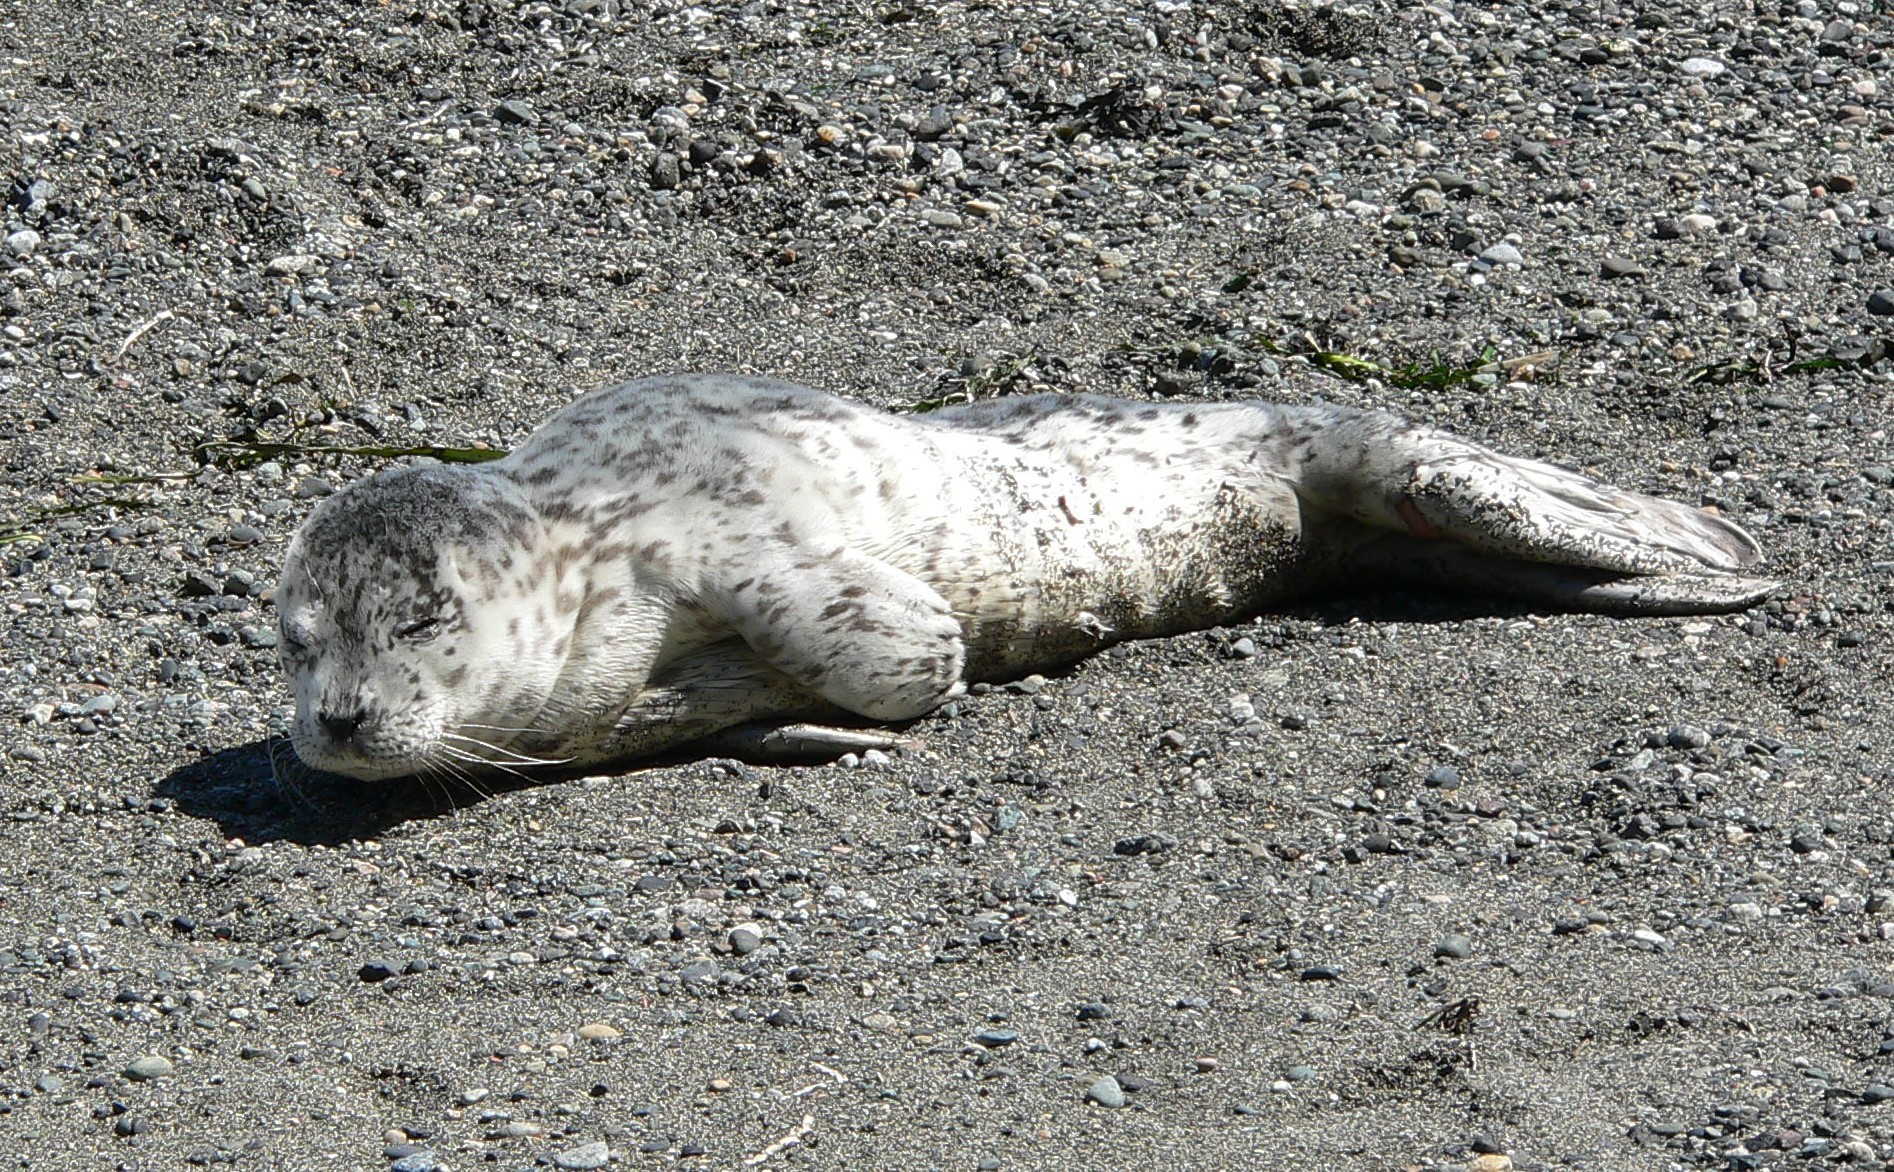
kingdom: Animalia
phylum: Chordata
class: Mammalia
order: Carnivora
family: Phocidae
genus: Phoca
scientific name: Phoca vitulina
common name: Harbor seal
